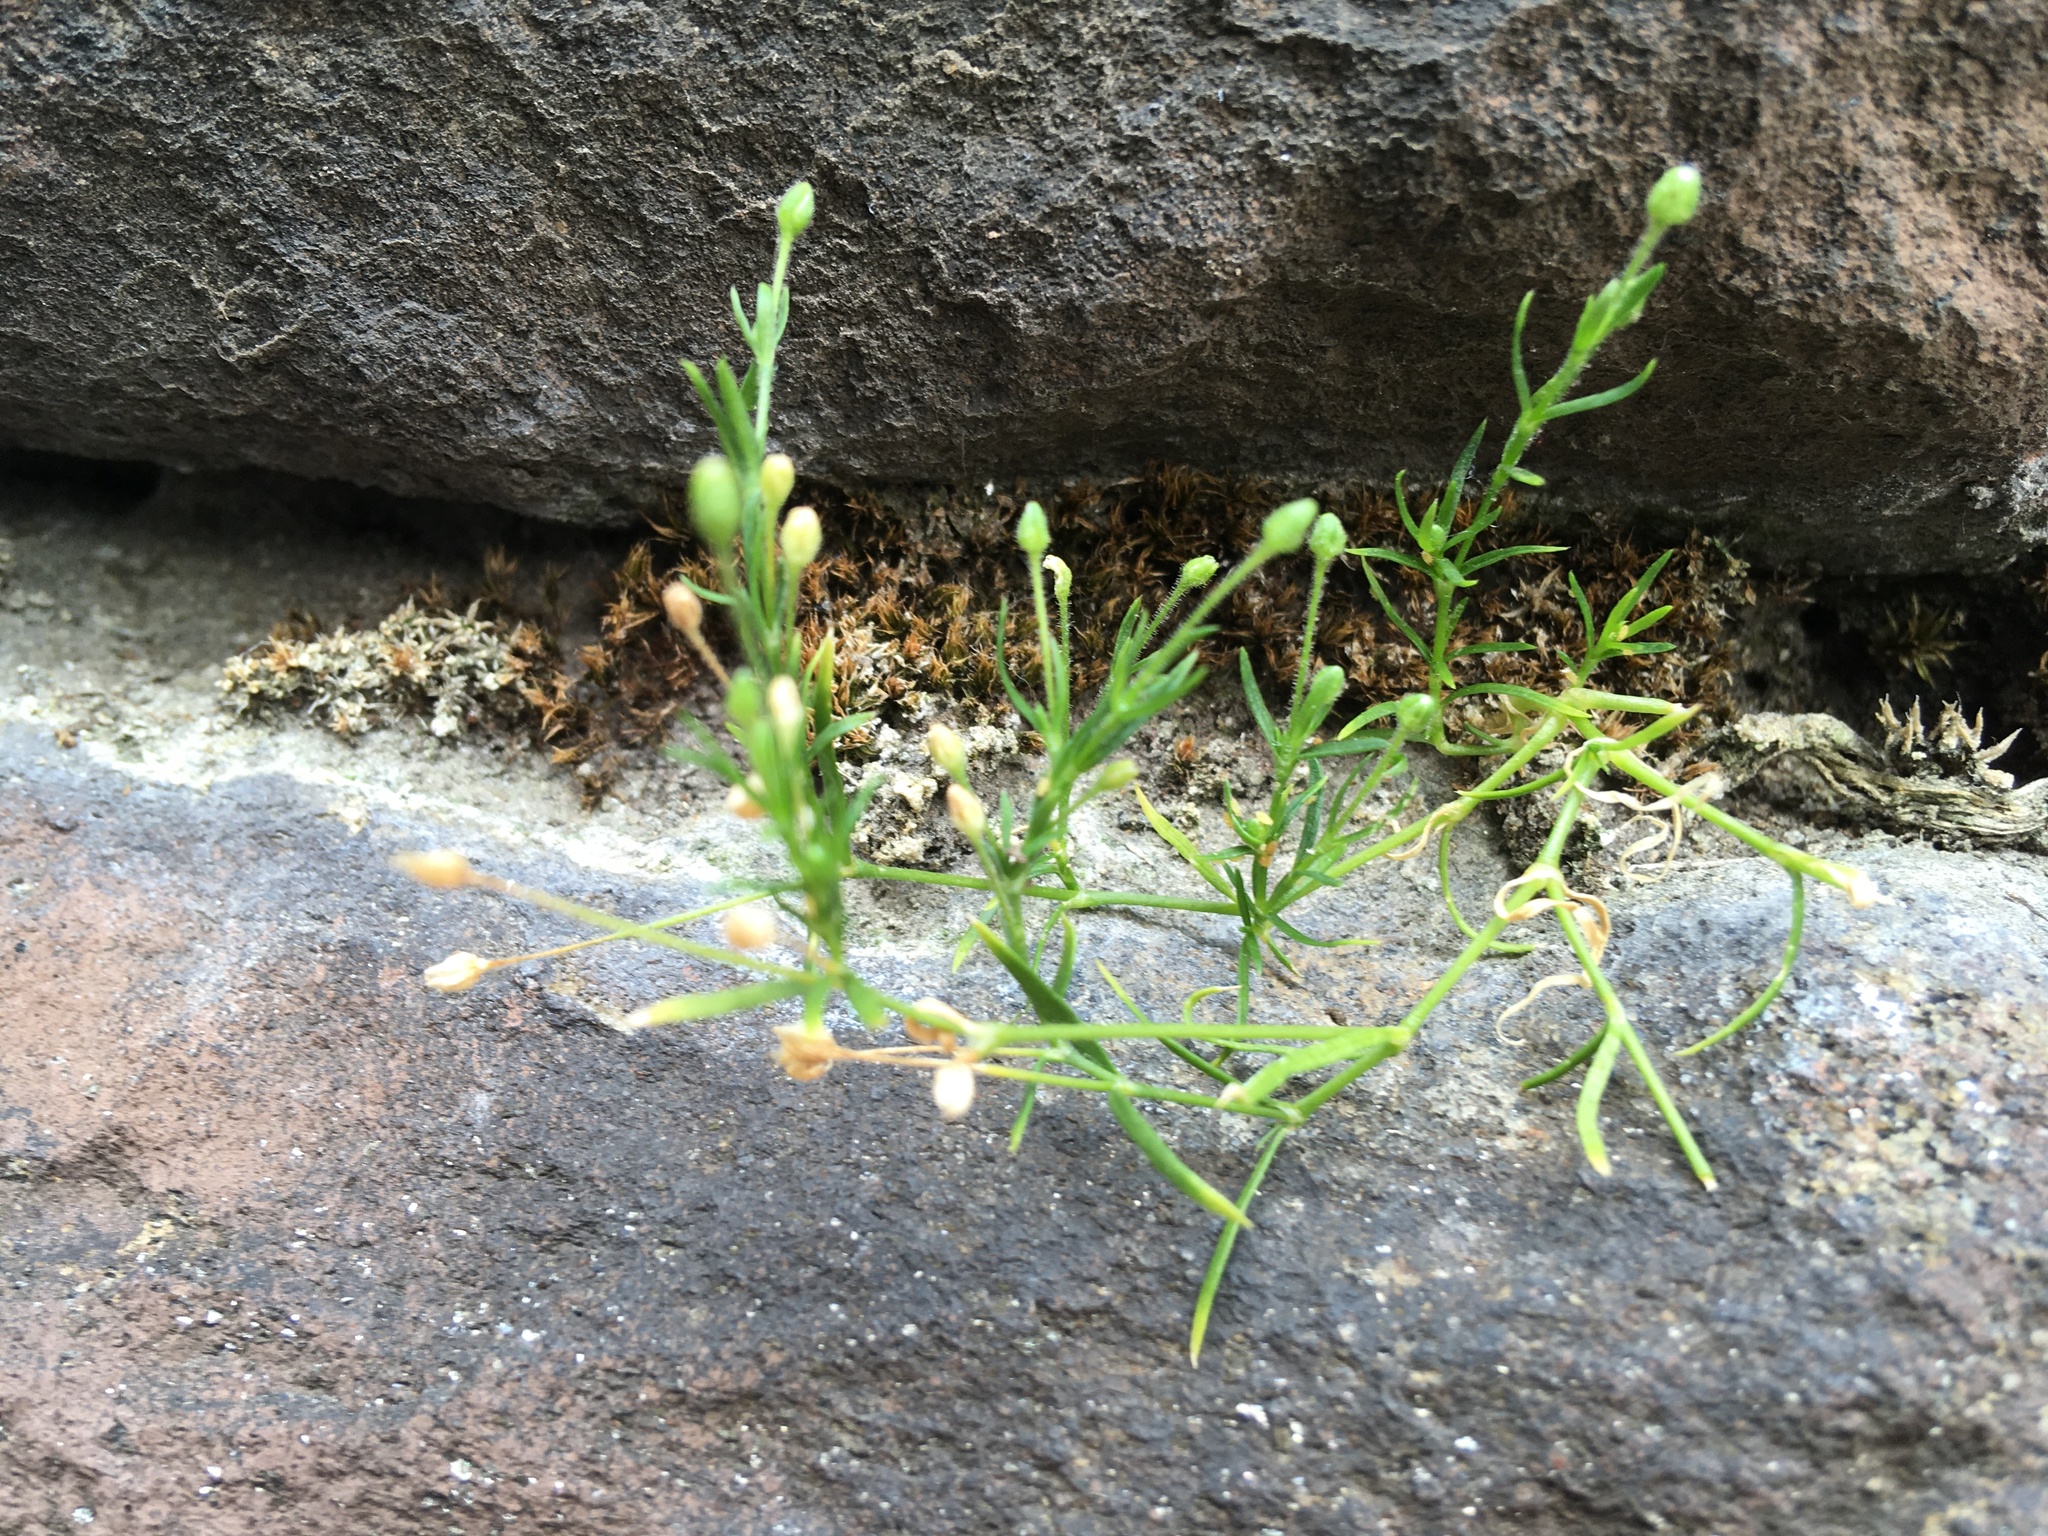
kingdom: Plantae
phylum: Tracheophyta
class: Magnoliopsida
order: Caryophyllales
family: Caryophyllaceae
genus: Sagina
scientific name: Sagina japonica
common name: Japanese pearlwort
